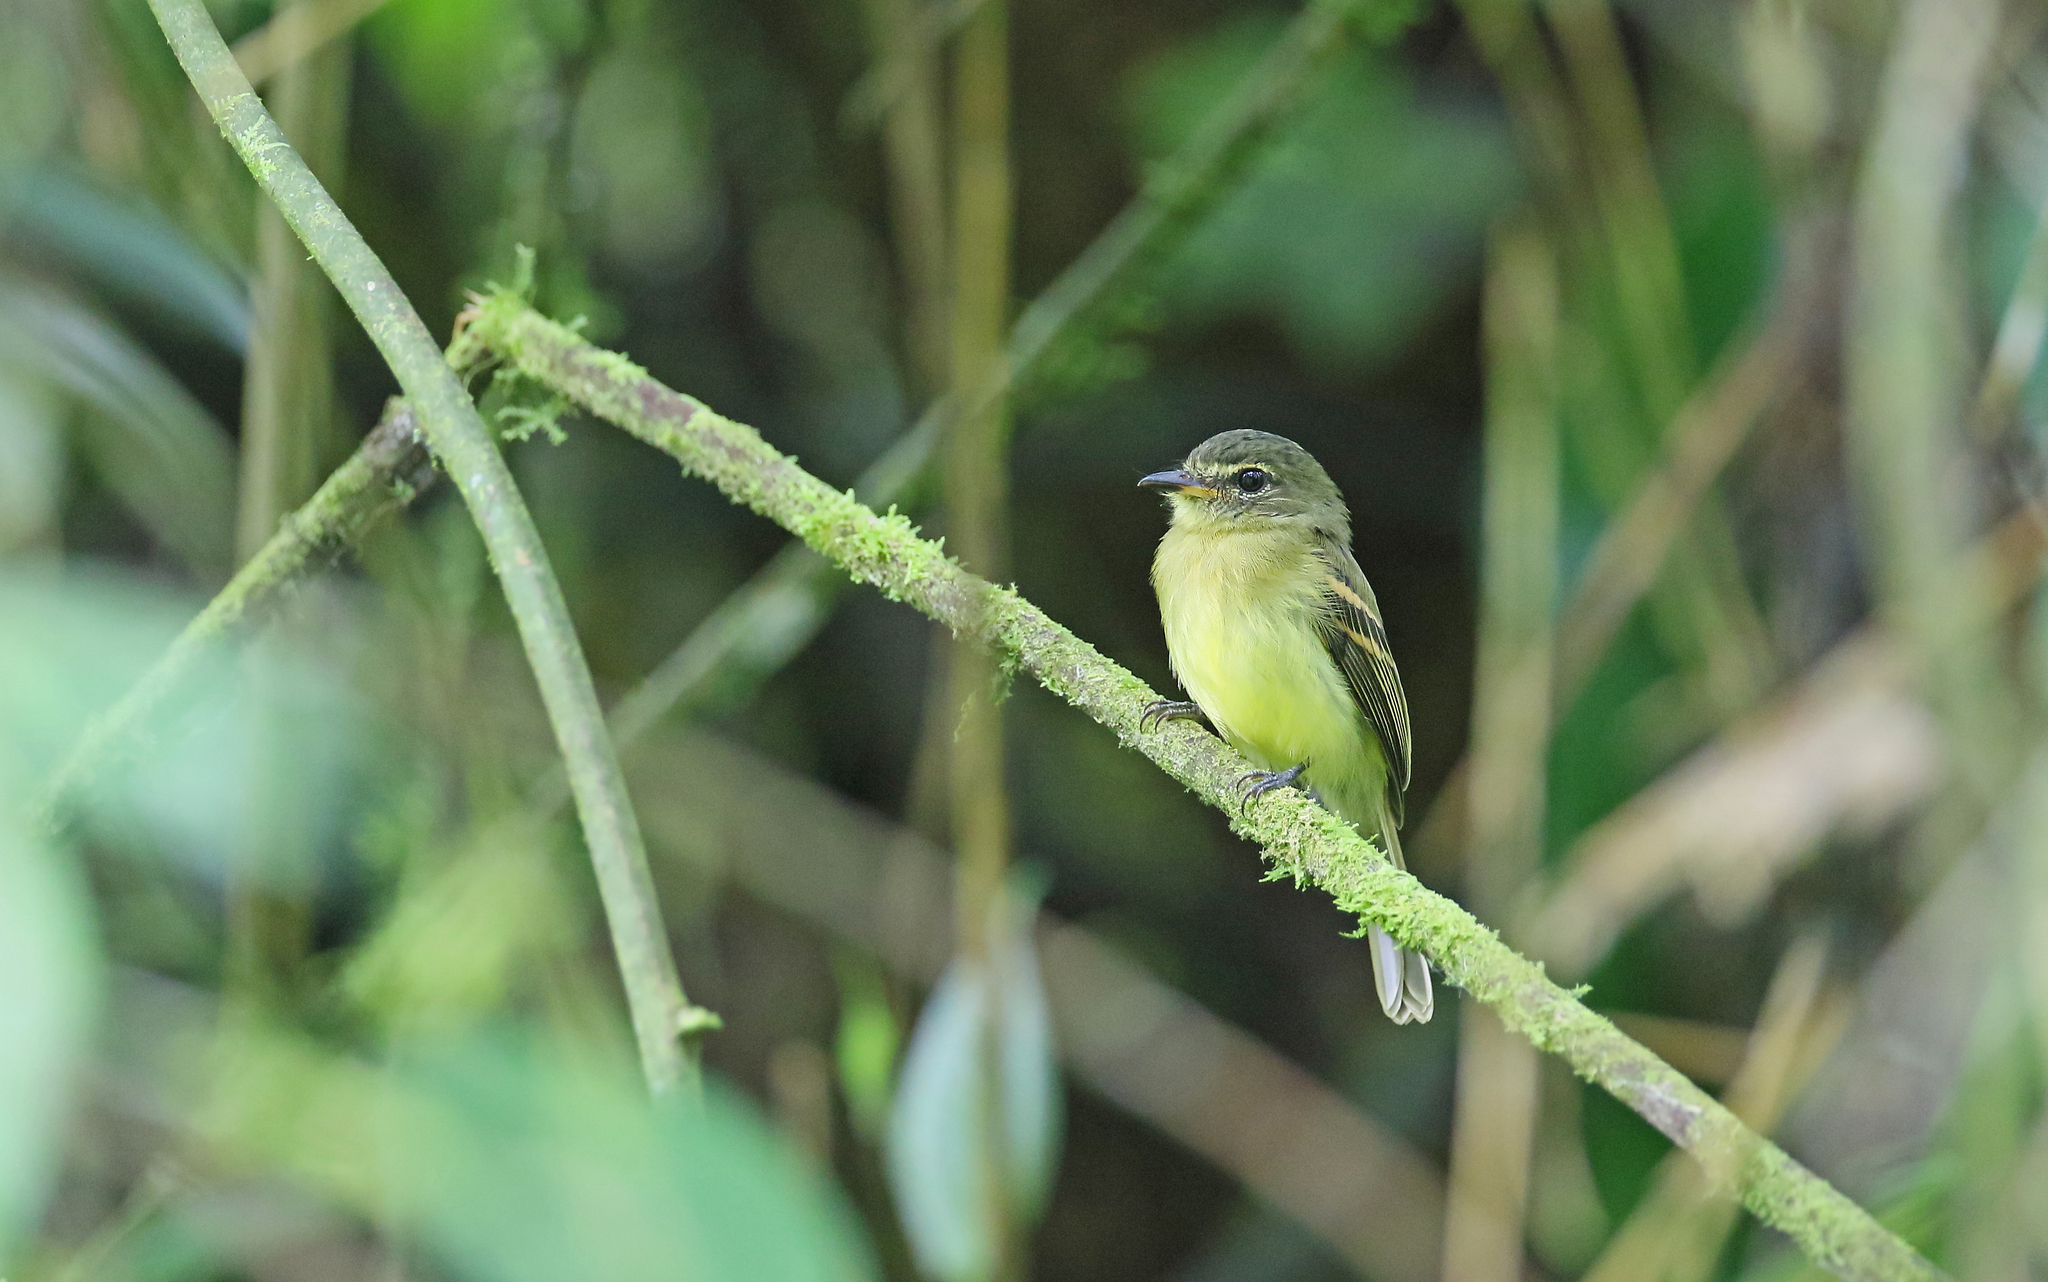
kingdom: Animalia
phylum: Chordata
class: Aves
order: Passeriformes
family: Tyrannidae
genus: Ramphotrigon
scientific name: Ramphotrigon megacephalum
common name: Large-headed flatbill
